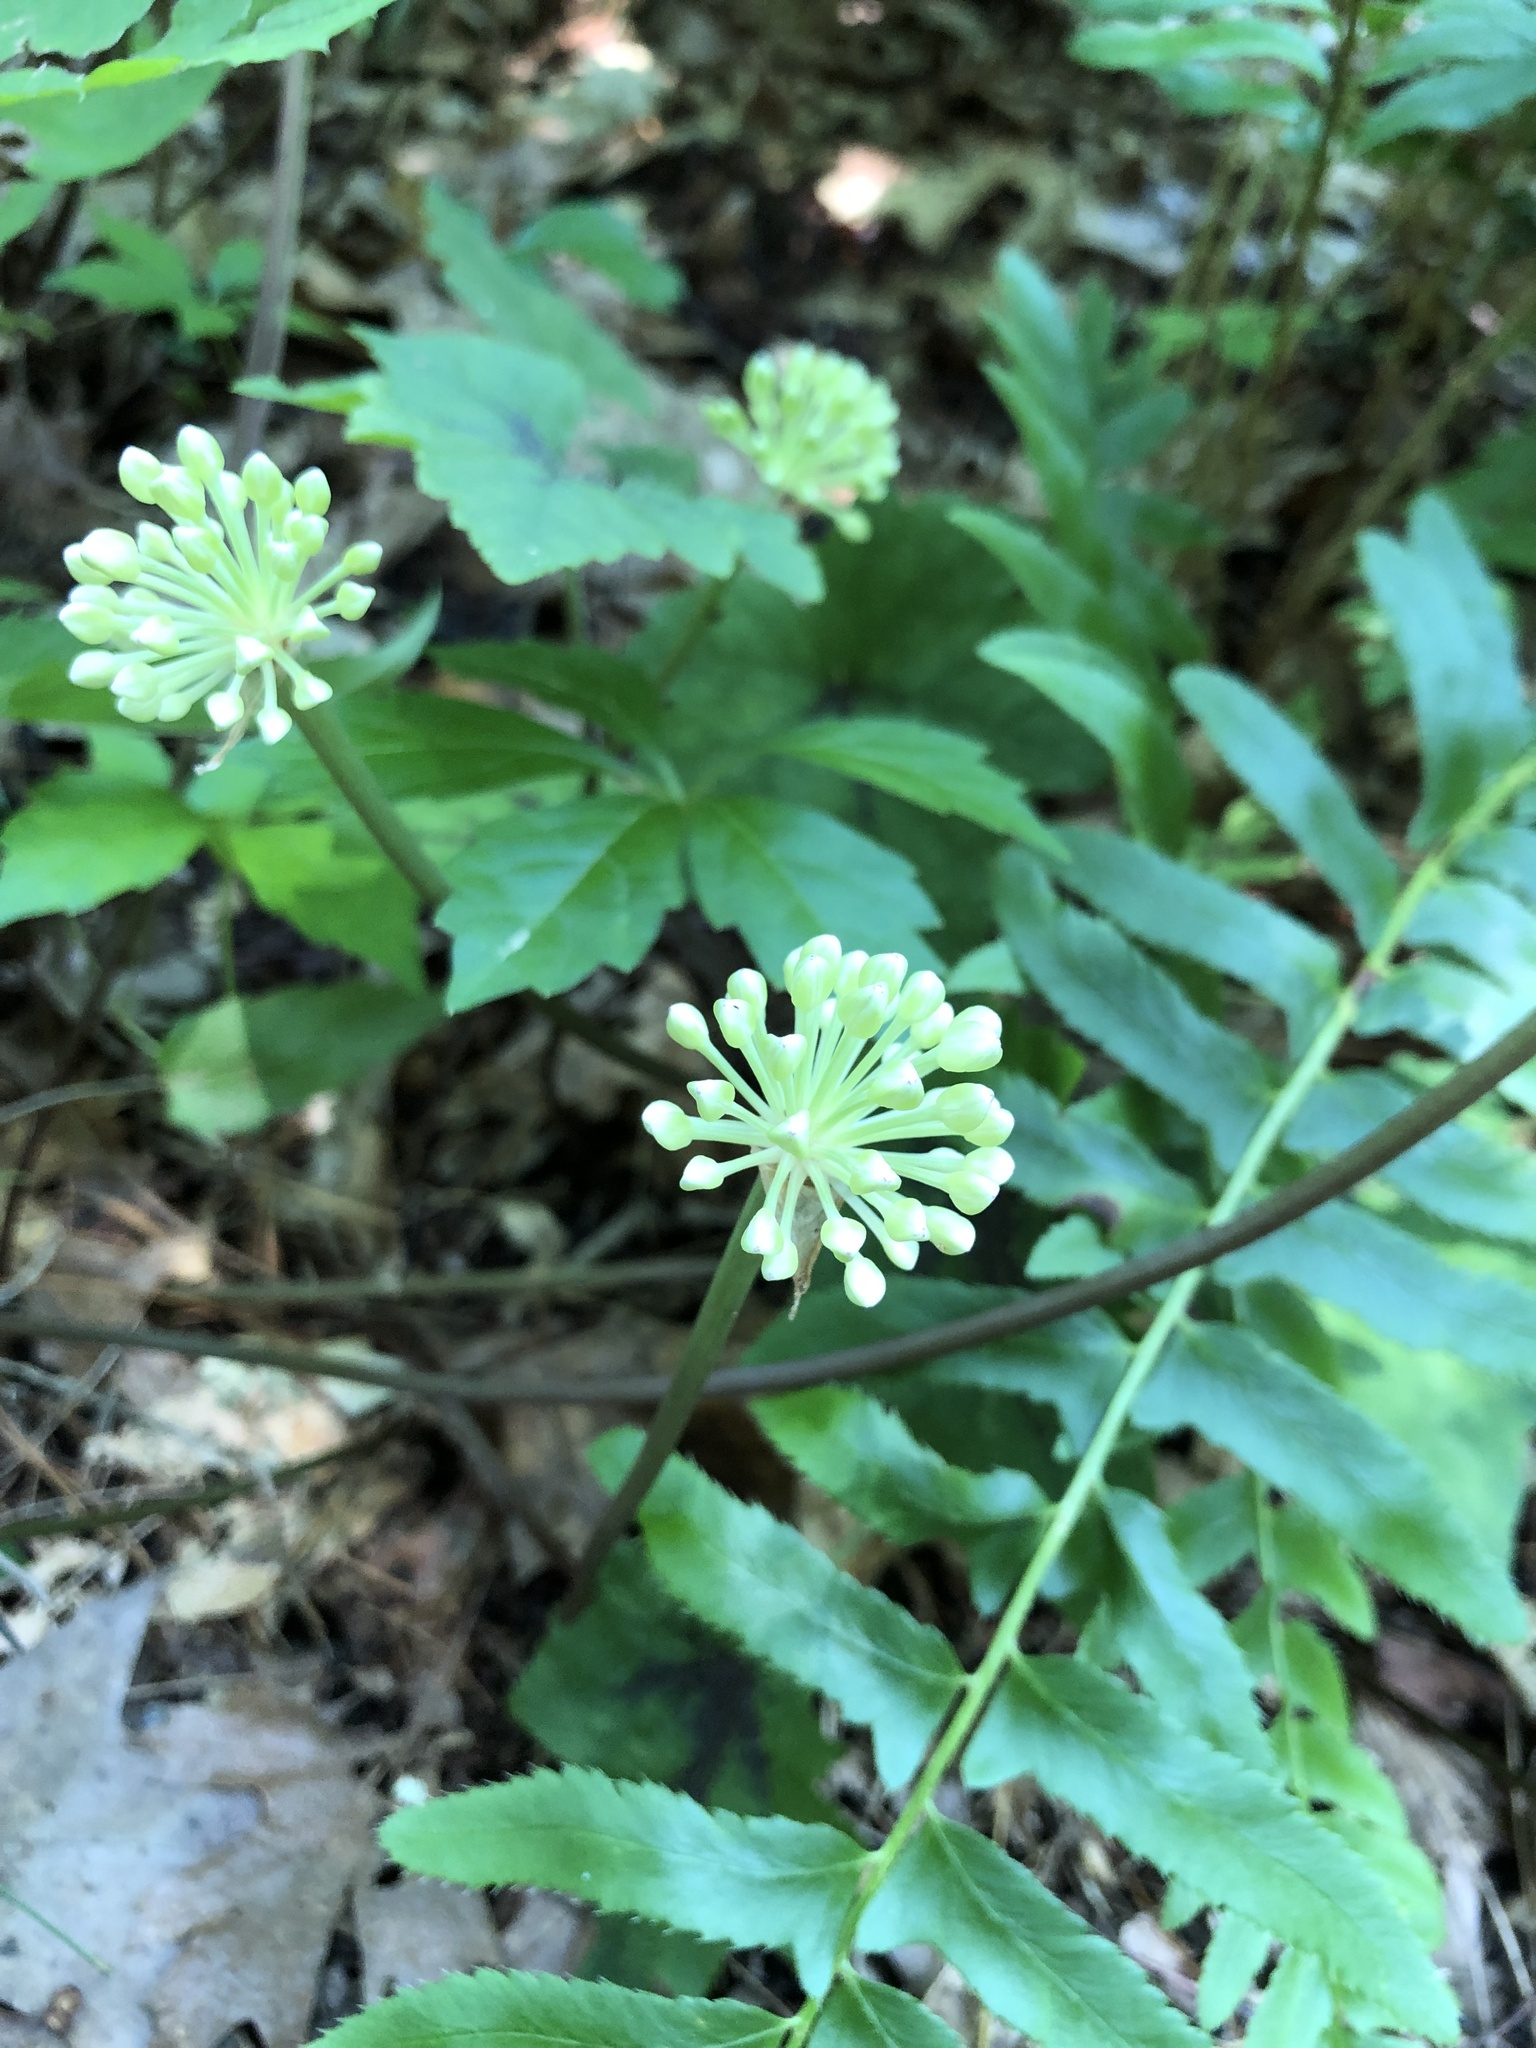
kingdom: Plantae
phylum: Tracheophyta
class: Liliopsida
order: Asparagales
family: Amaryllidaceae
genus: Allium
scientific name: Allium tricoccum
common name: Ramp
